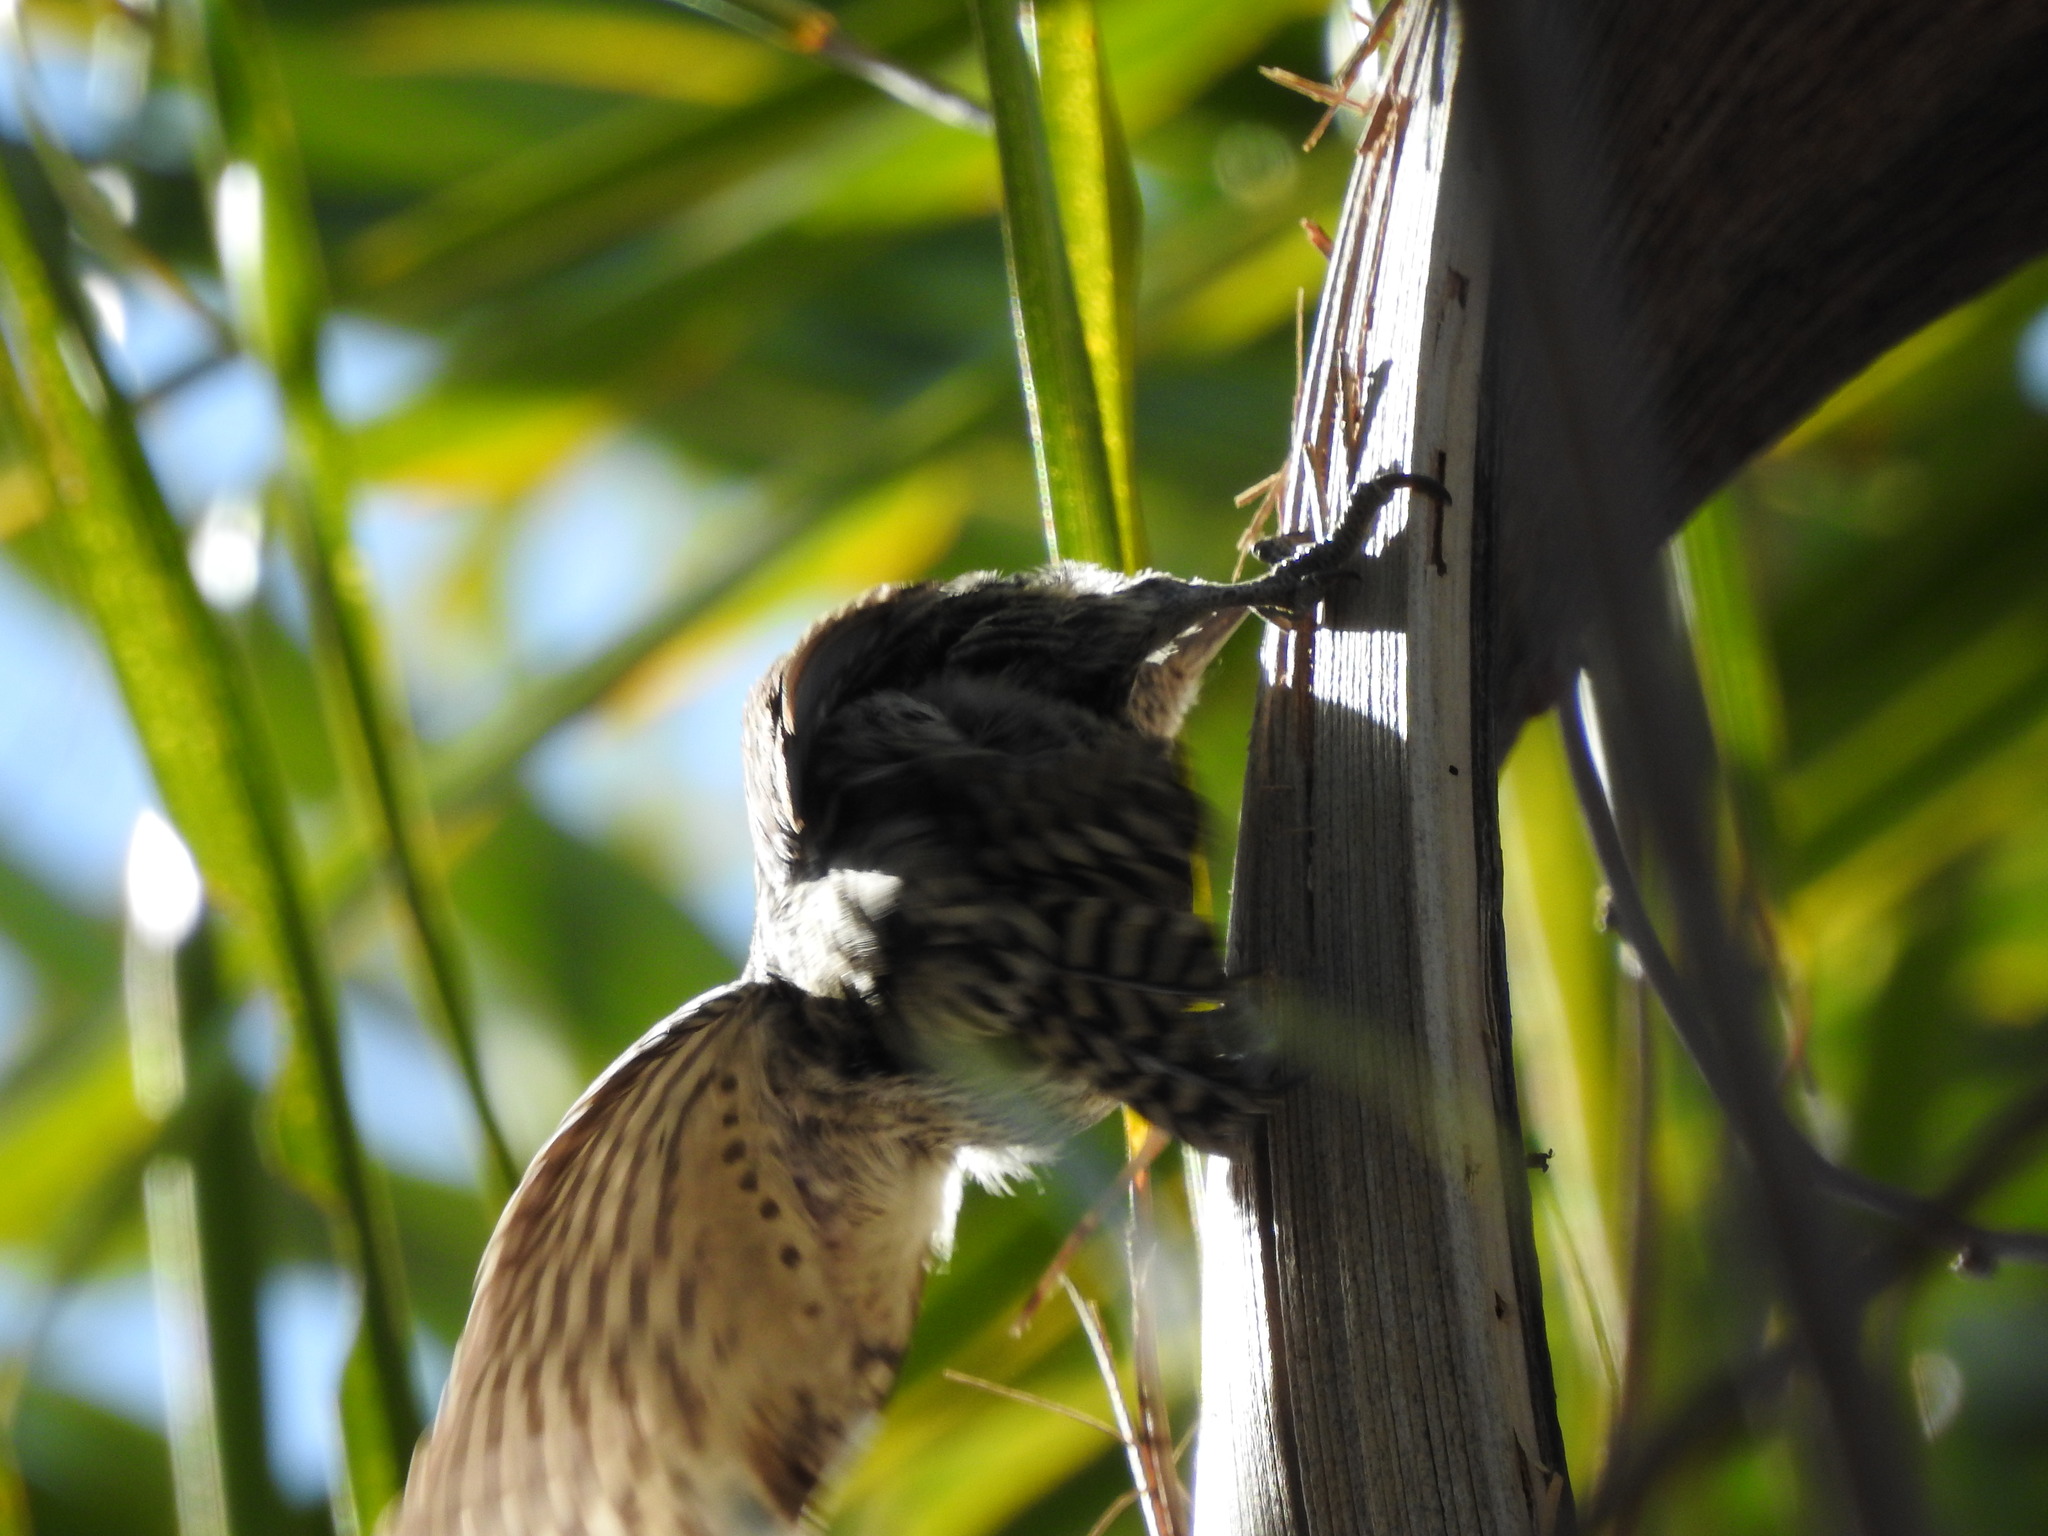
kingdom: Animalia
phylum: Chordata
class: Aves
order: Piciformes
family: Picidae
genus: Veniliornis
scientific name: Veniliornis mixtus
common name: Checkered woodpecker
